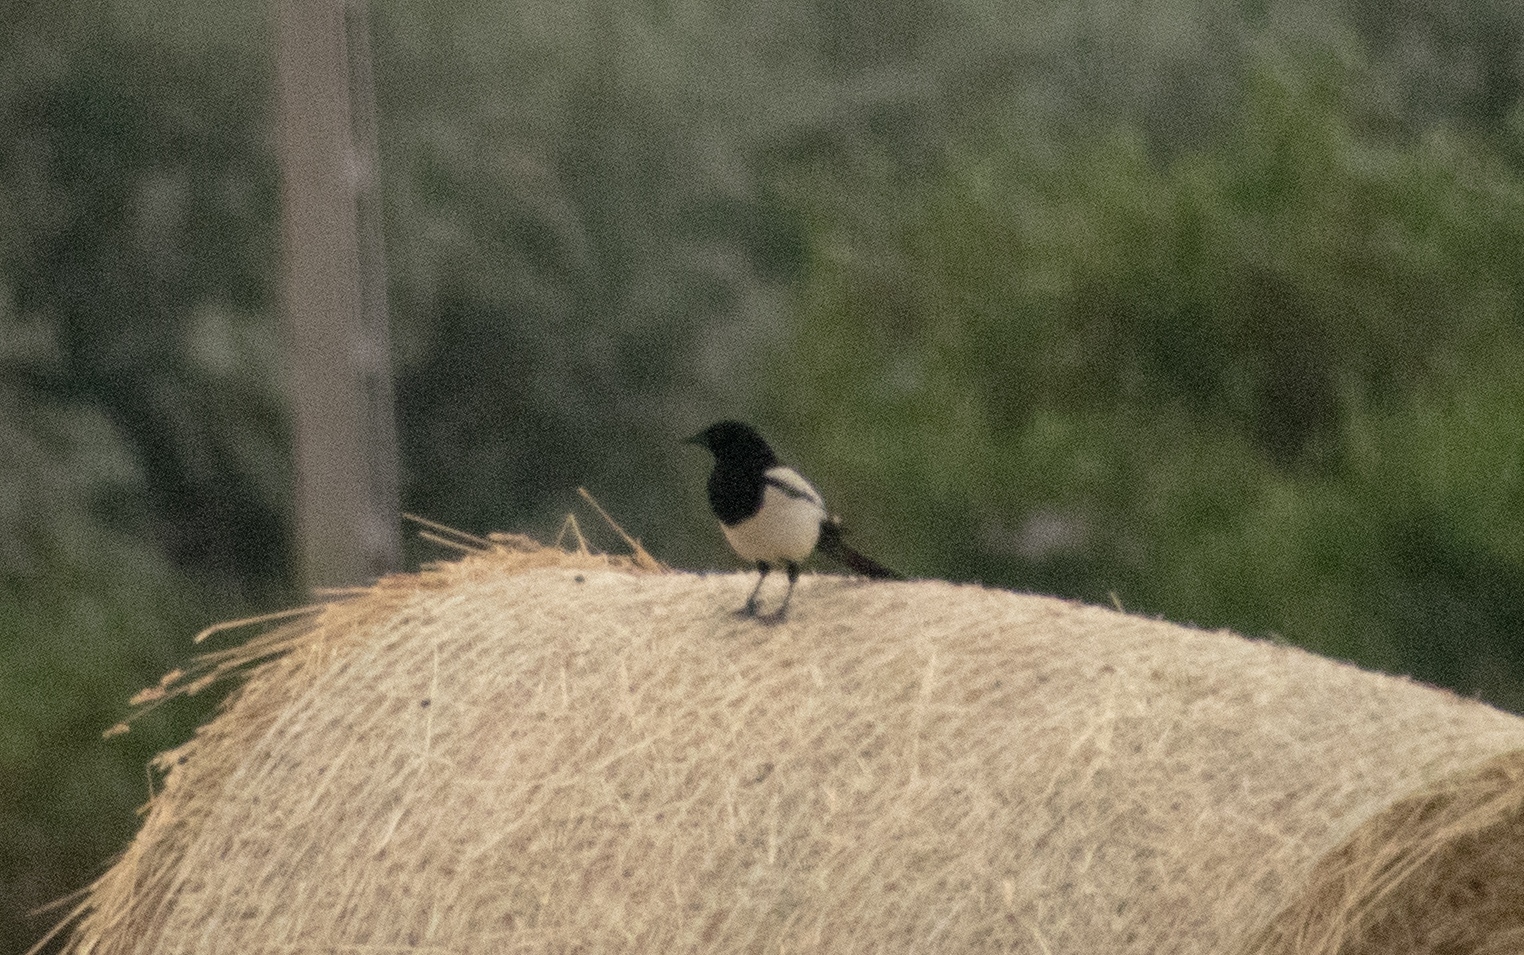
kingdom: Animalia
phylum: Chordata
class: Aves
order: Passeriformes
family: Corvidae
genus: Pica
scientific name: Pica pica
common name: Eurasian magpie
